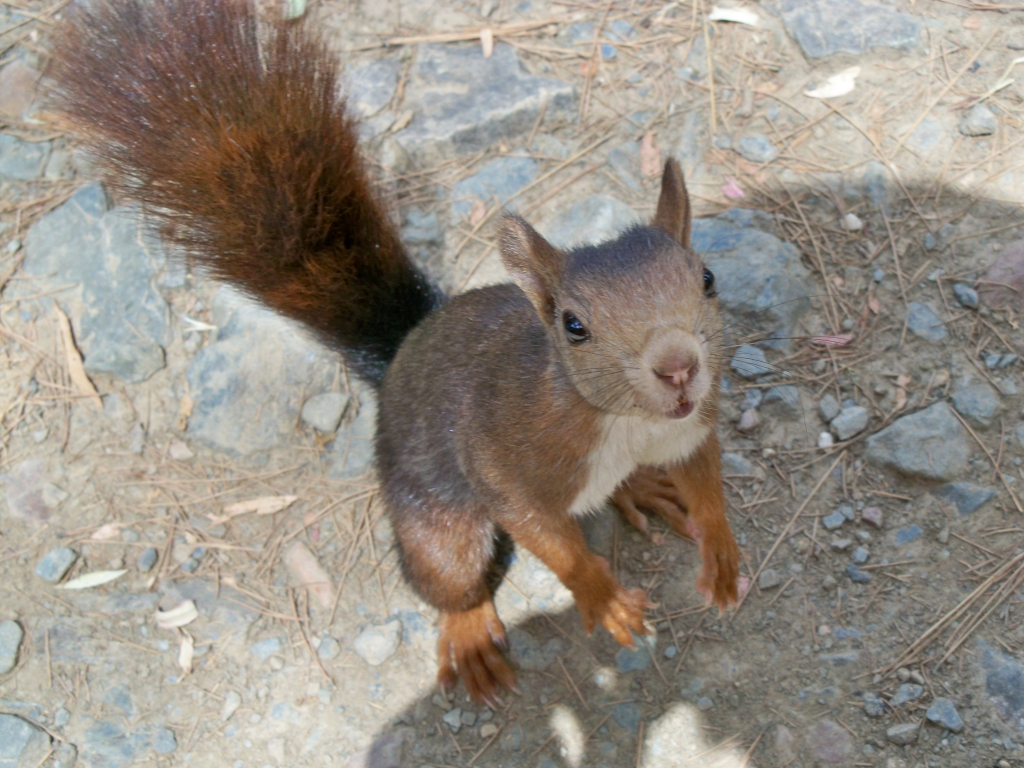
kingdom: Animalia
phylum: Chordata
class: Mammalia
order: Rodentia
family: Sciuridae
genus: Sciurus
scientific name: Sciurus vulgaris
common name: Eurasian red squirrel
